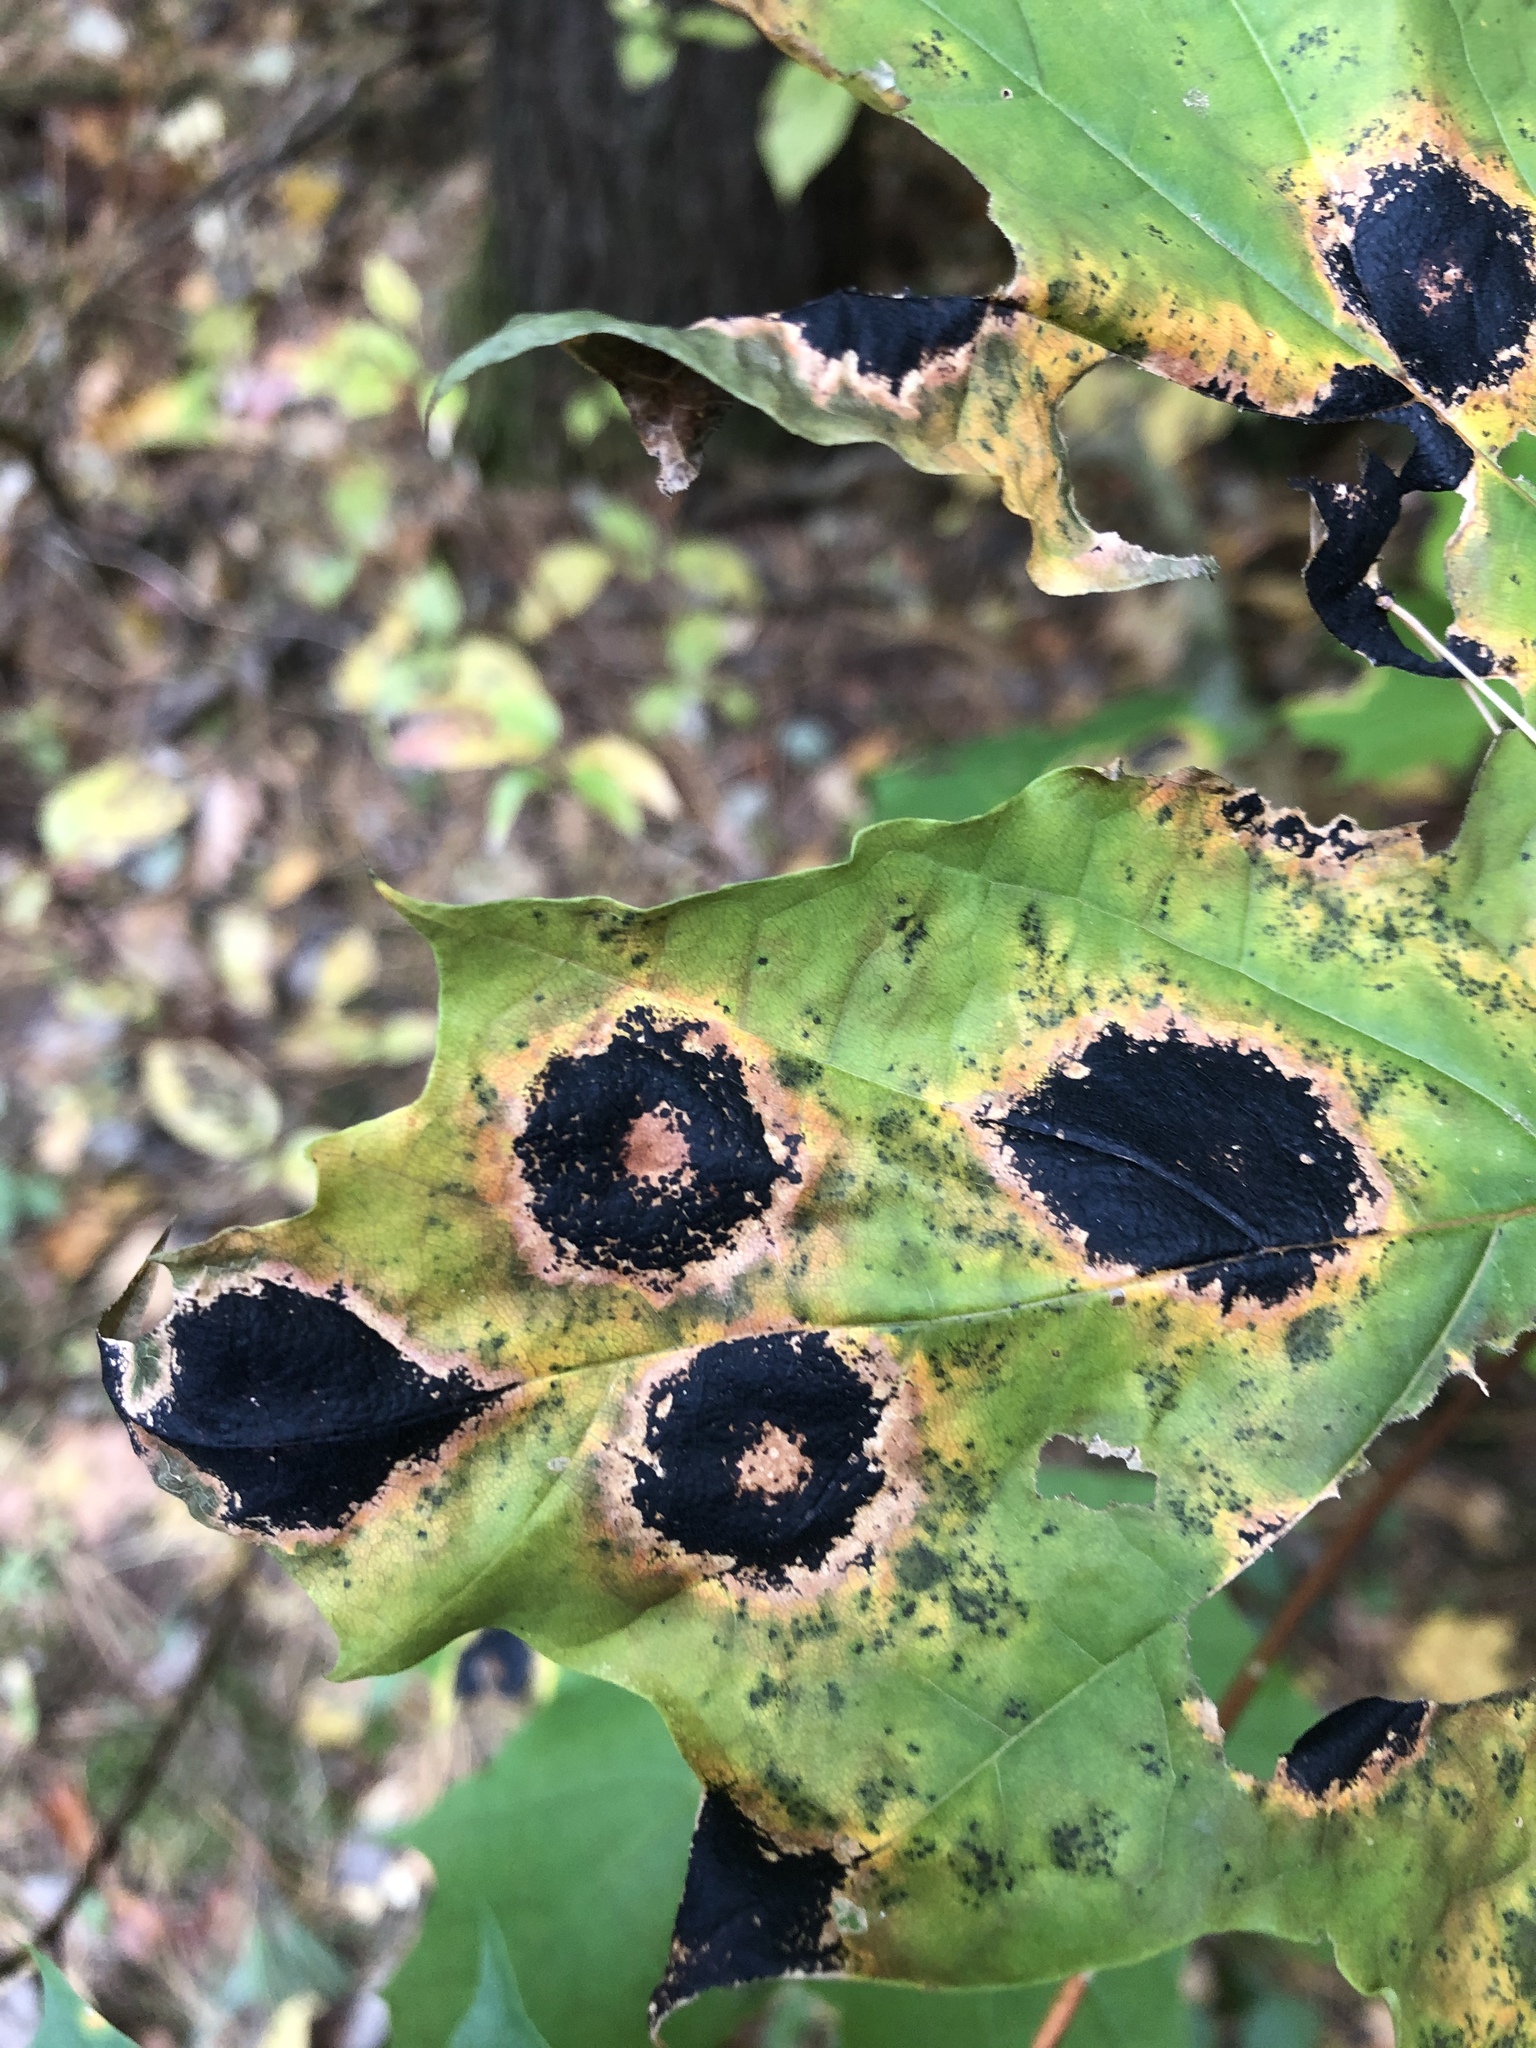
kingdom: Fungi
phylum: Ascomycota
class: Leotiomycetes
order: Rhytismatales
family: Rhytismataceae
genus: Rhytisma
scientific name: Rhytisma acerinum
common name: European tar spot
